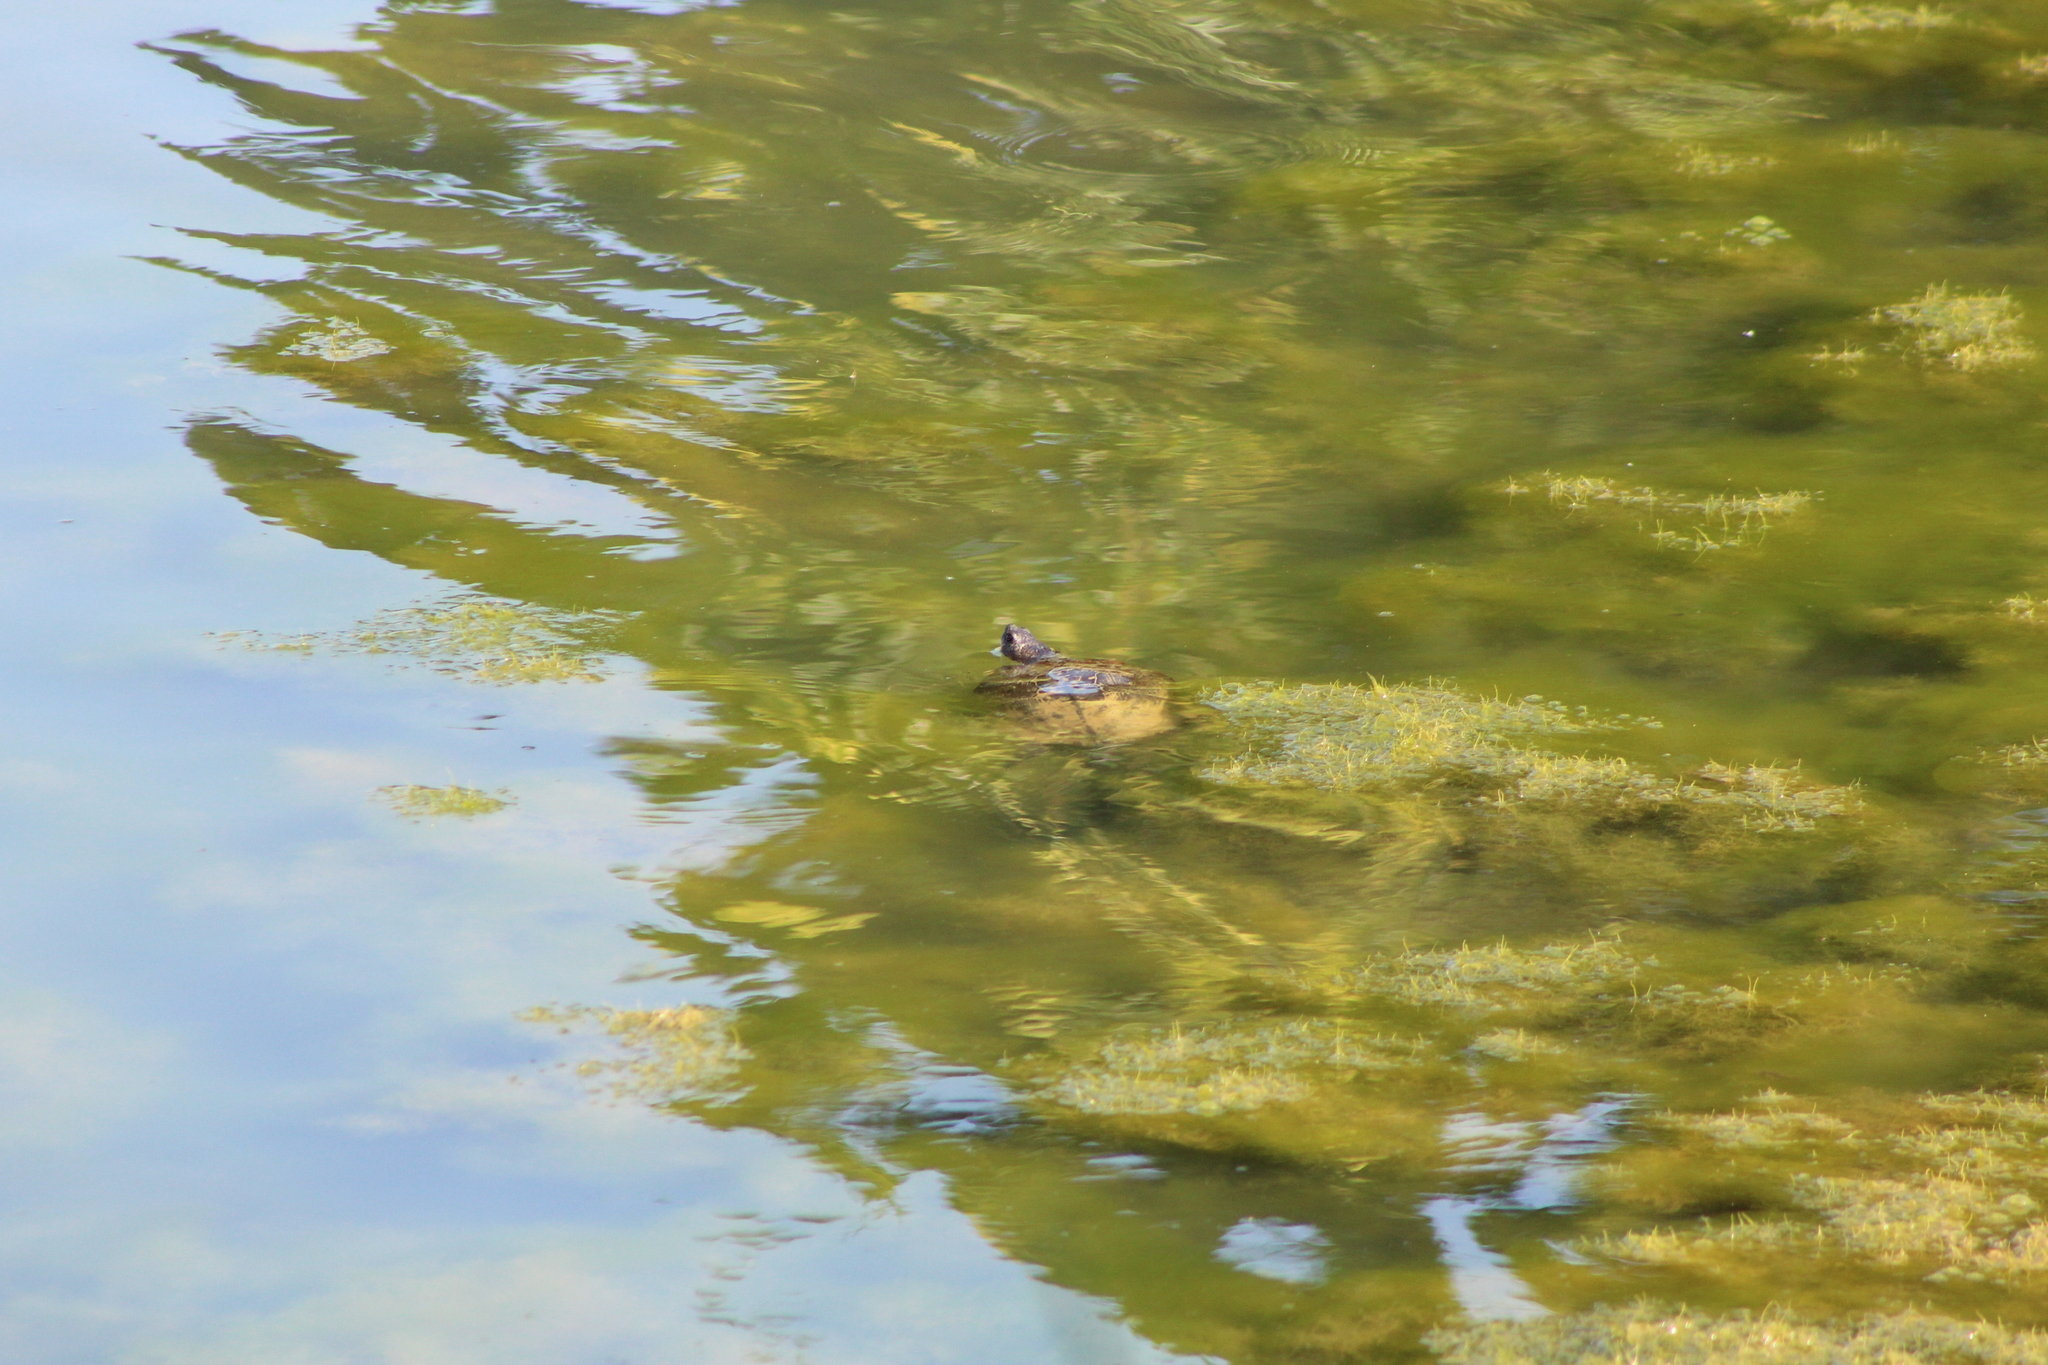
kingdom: Animalia
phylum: Chordata
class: Testudines
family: Emydidae
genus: Trachemys
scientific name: Trachemys scripta
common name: Slider
